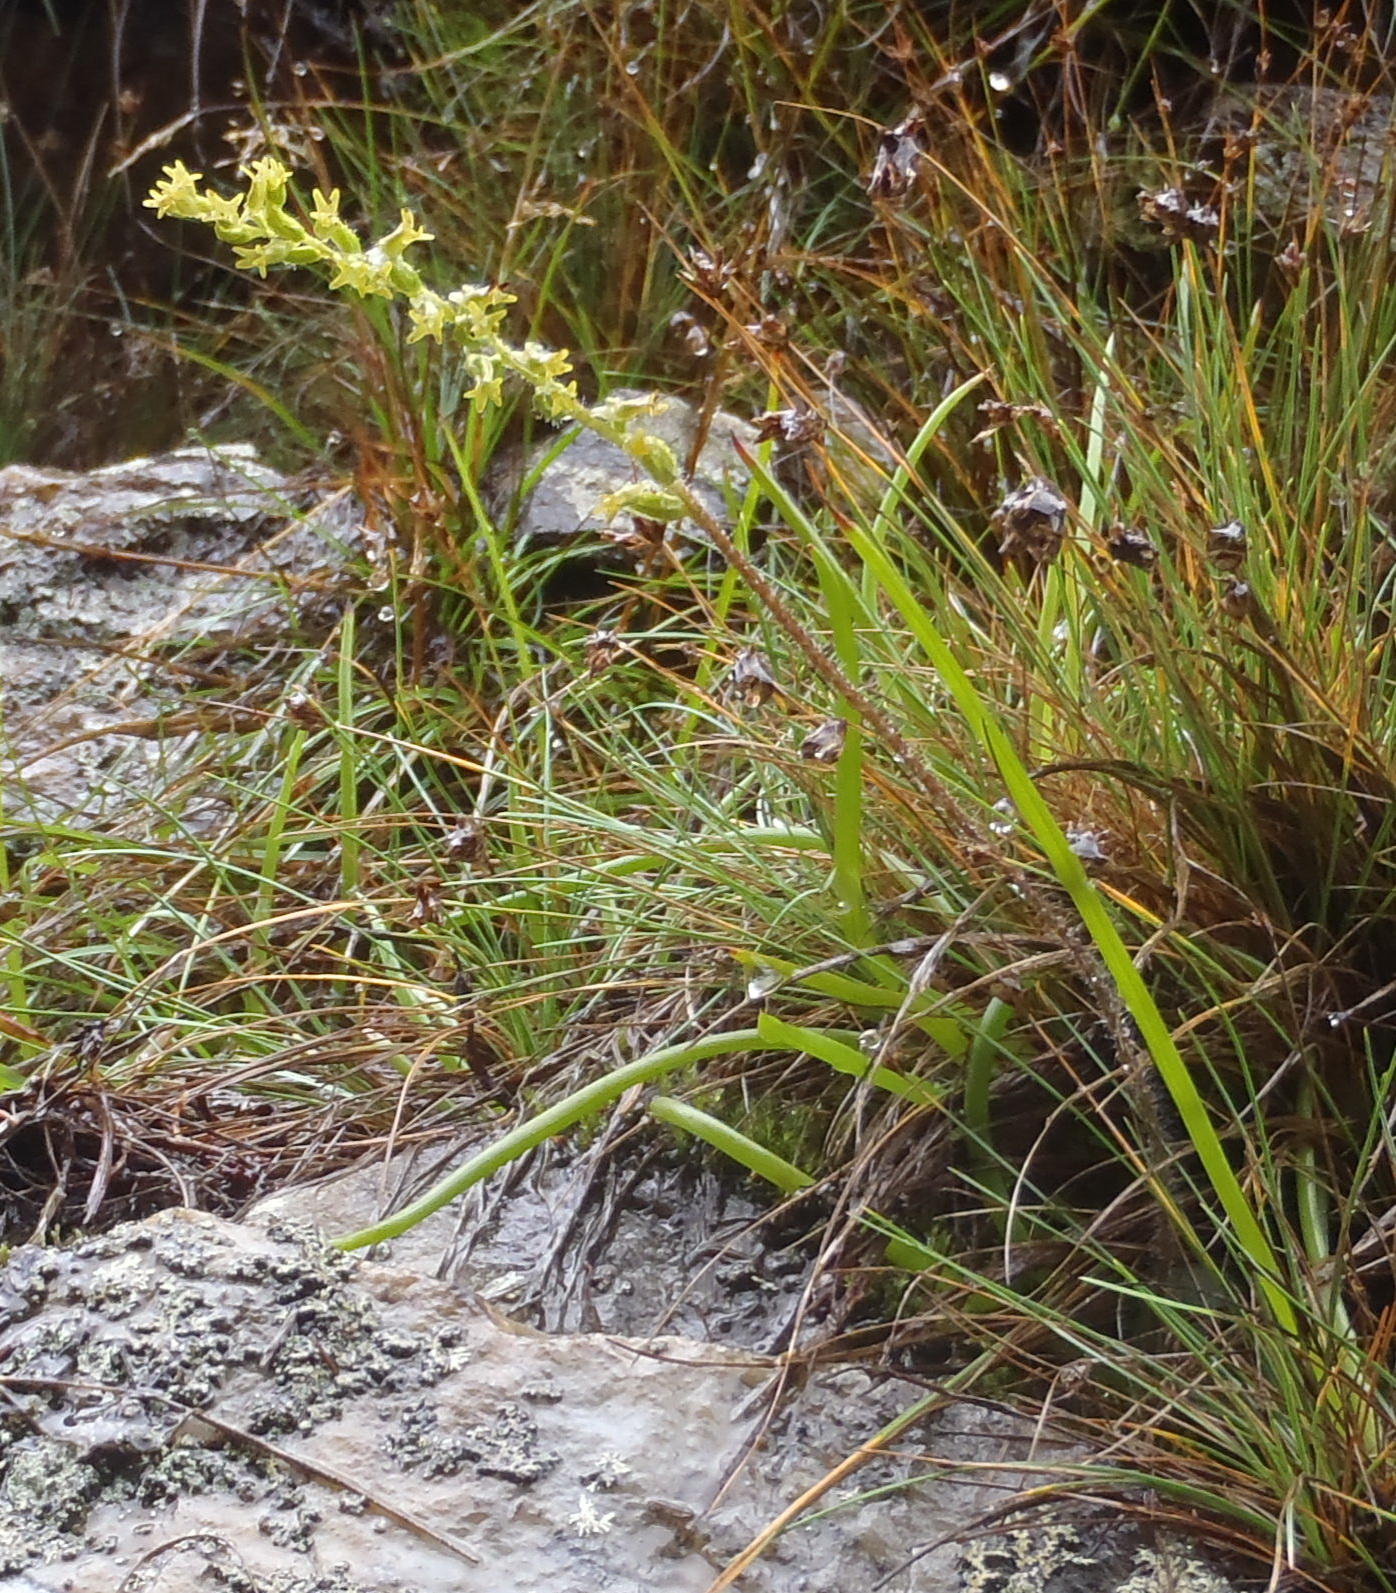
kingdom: Plantae
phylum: Tracheophyta
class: Liliopsida
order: Asparagales
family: Orchidaceae
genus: Holothrix
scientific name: Holothrix brevipetala
